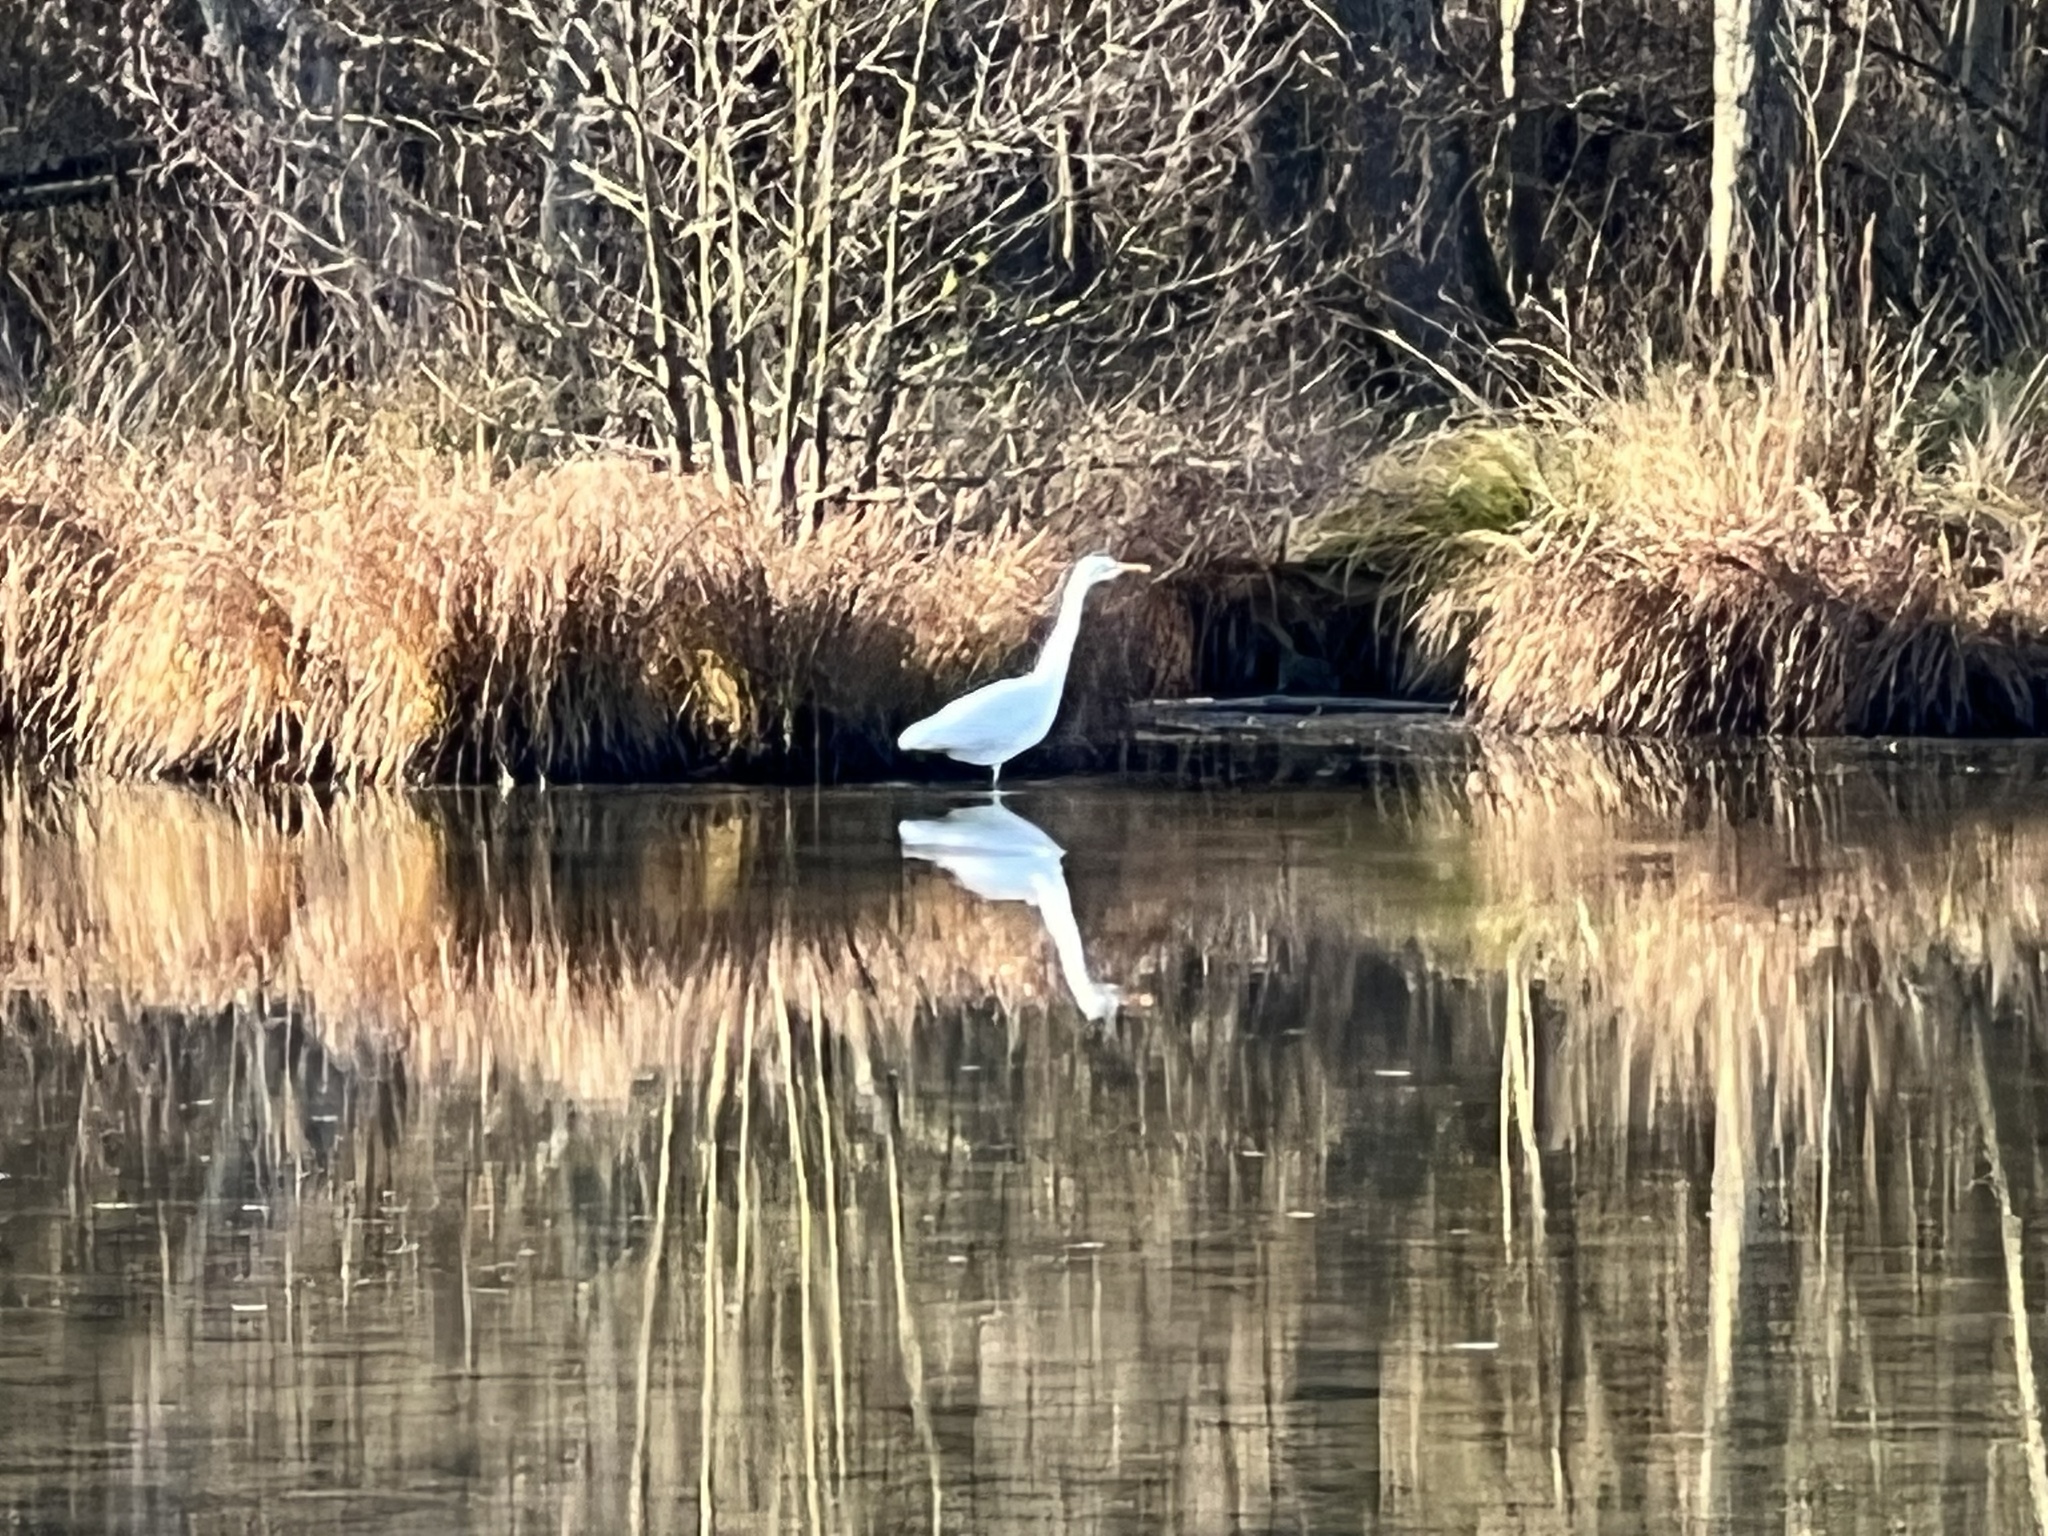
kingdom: Animalia
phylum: Chordata
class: Aves
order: Pelecaniformes
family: Ardeidae
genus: Ardea
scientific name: Ardea alba
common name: Great egret
